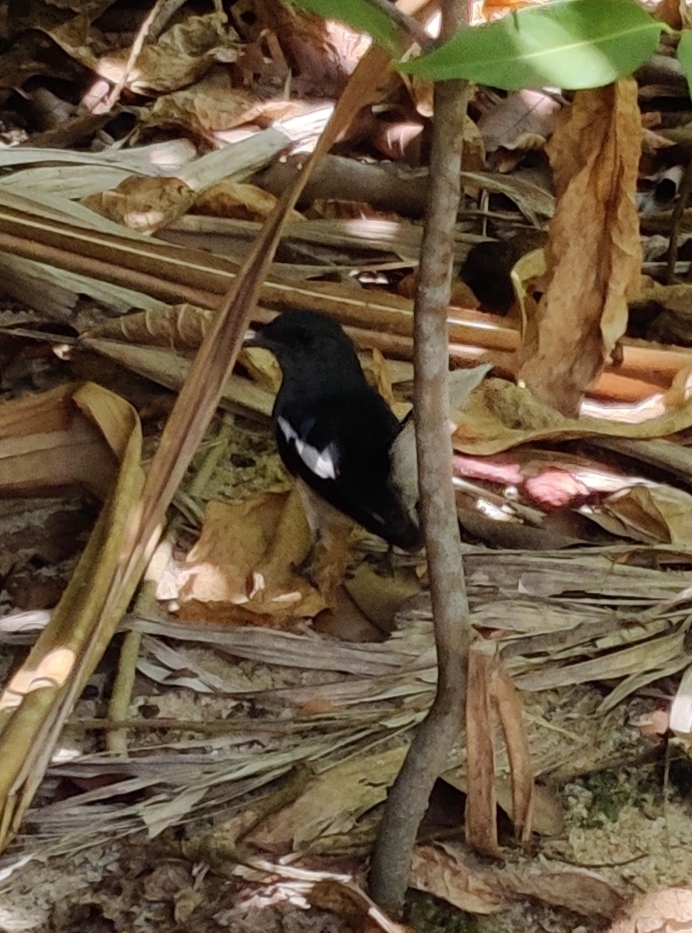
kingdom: Animalia
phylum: Chordata
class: Aves
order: Passeriformes
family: Muscicapidae
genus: Copsychus
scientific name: Copsychus saularis
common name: Oriental magpie-robin
